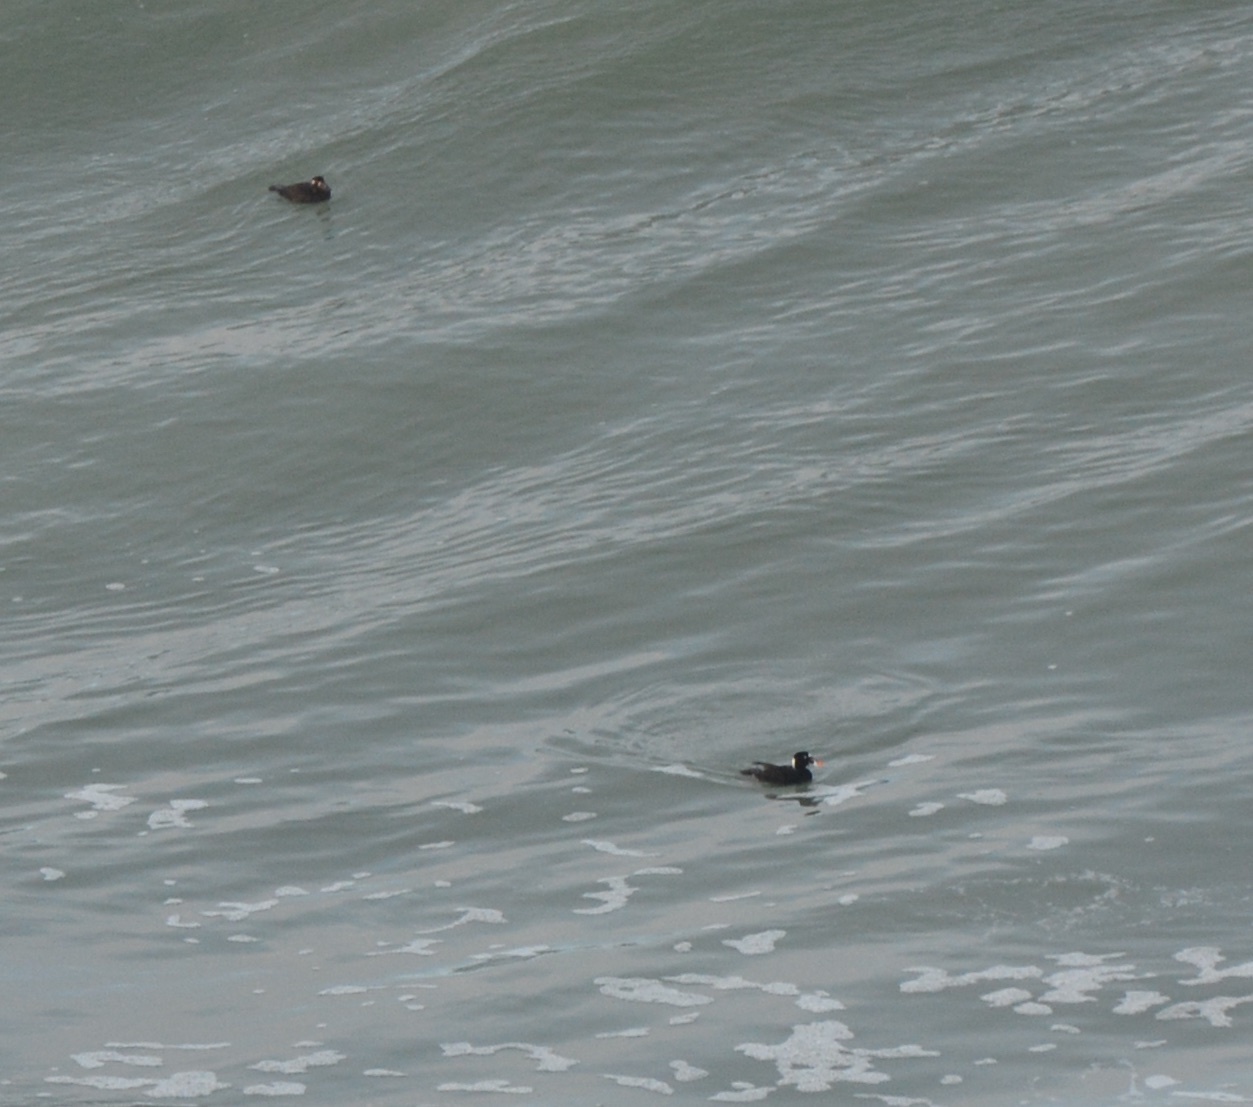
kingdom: Animalia
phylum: Chordata
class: Aves
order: Anseriformes
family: Anatidae
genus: Melanitta
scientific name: Melanitta perspicillata
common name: Surf scoter
